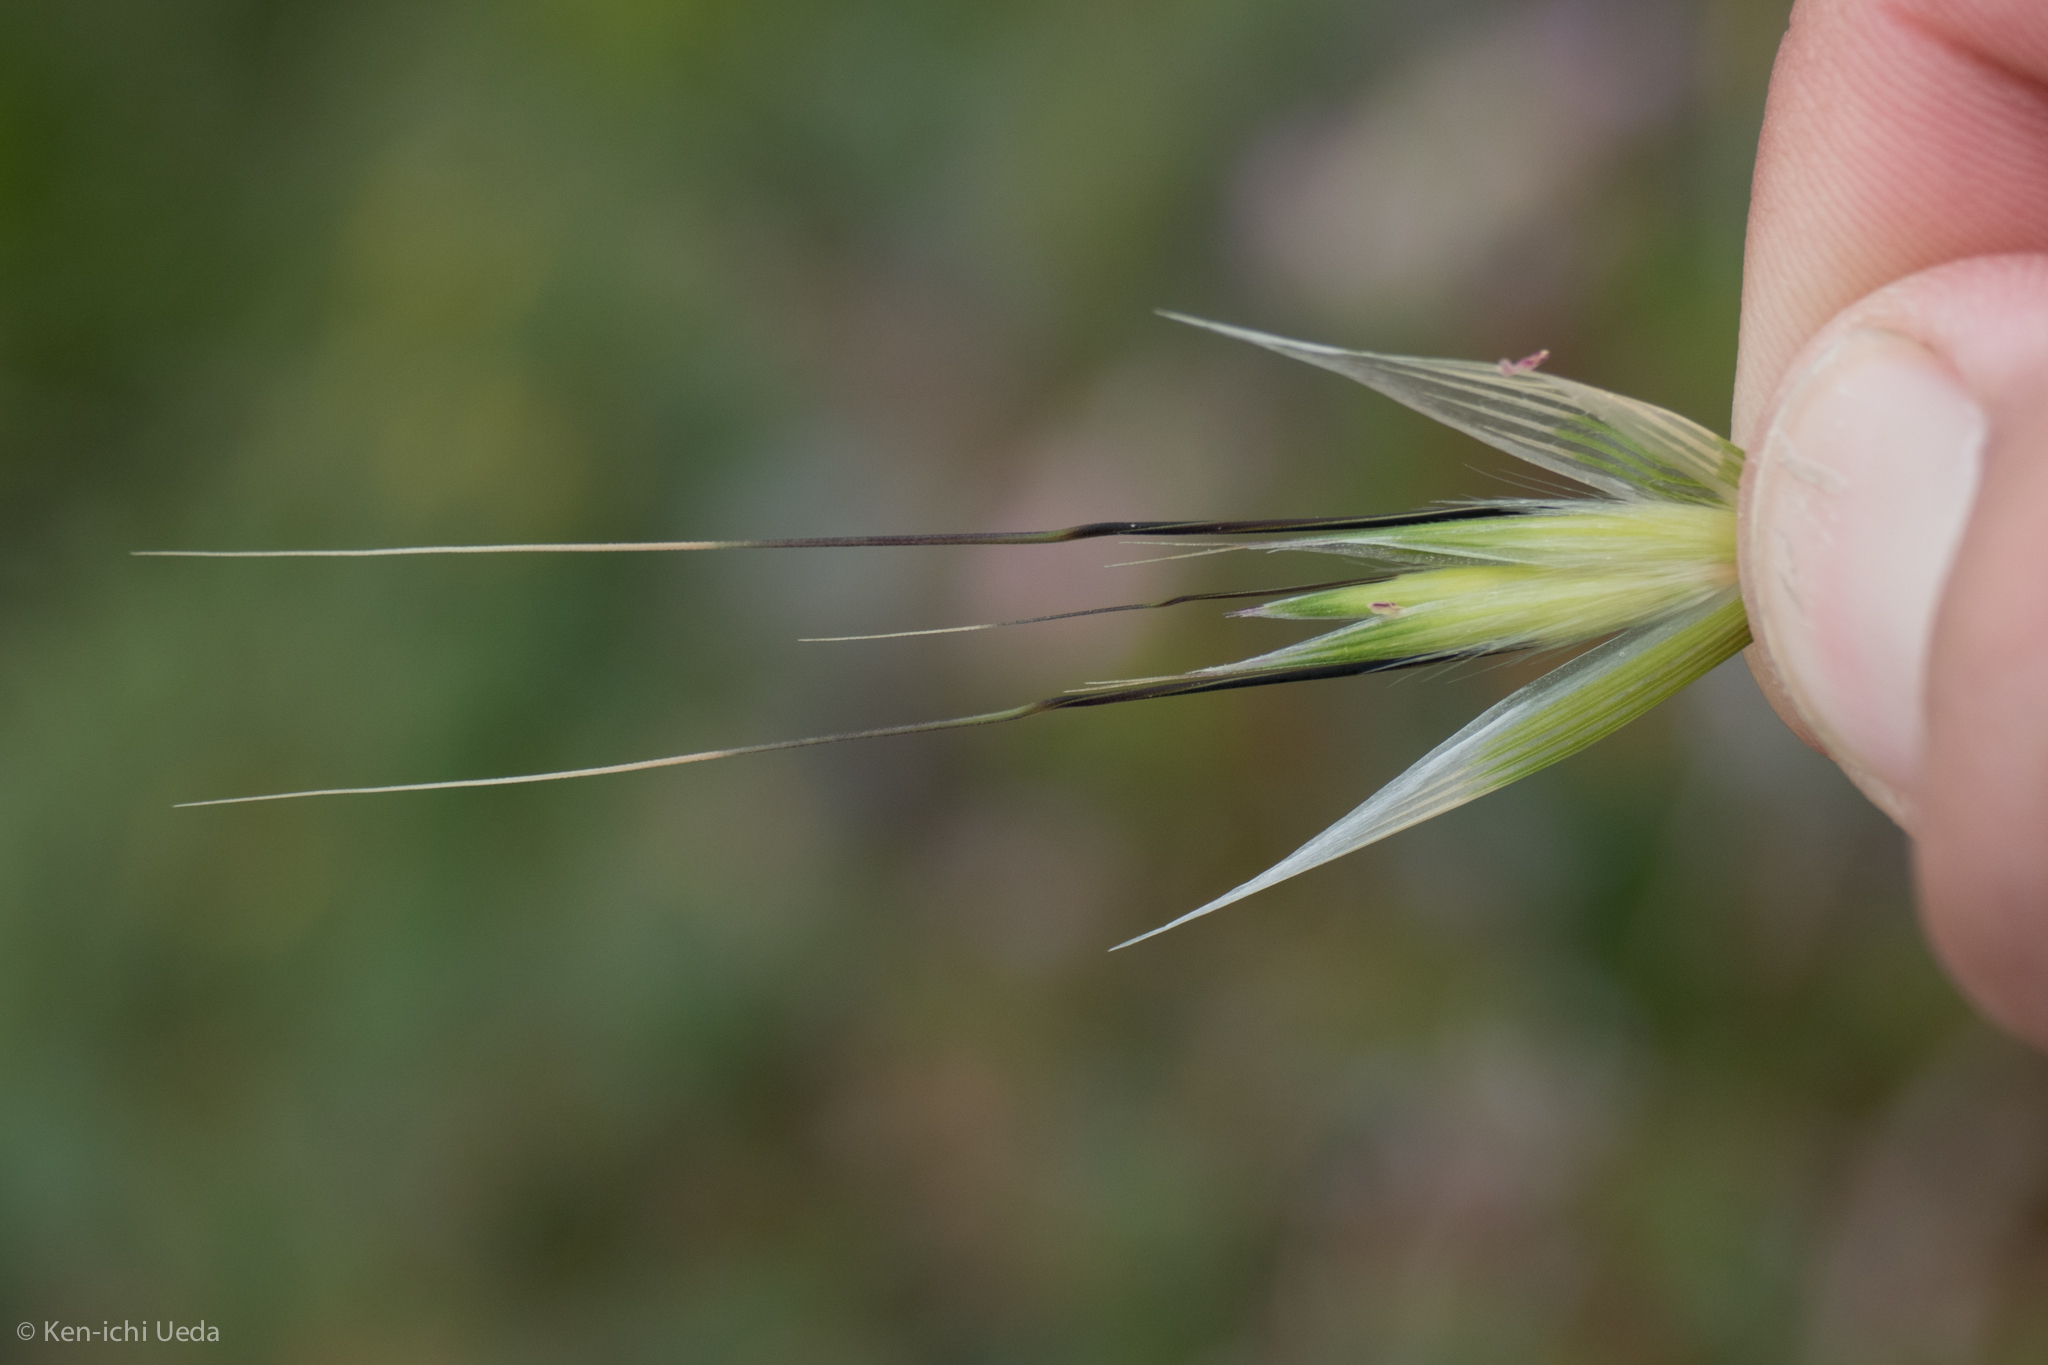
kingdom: Plantae
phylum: Tracheophyta
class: Liliopsida
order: Poales
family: Poaceae
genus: Avena
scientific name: Avena barbata
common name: Slender oat
